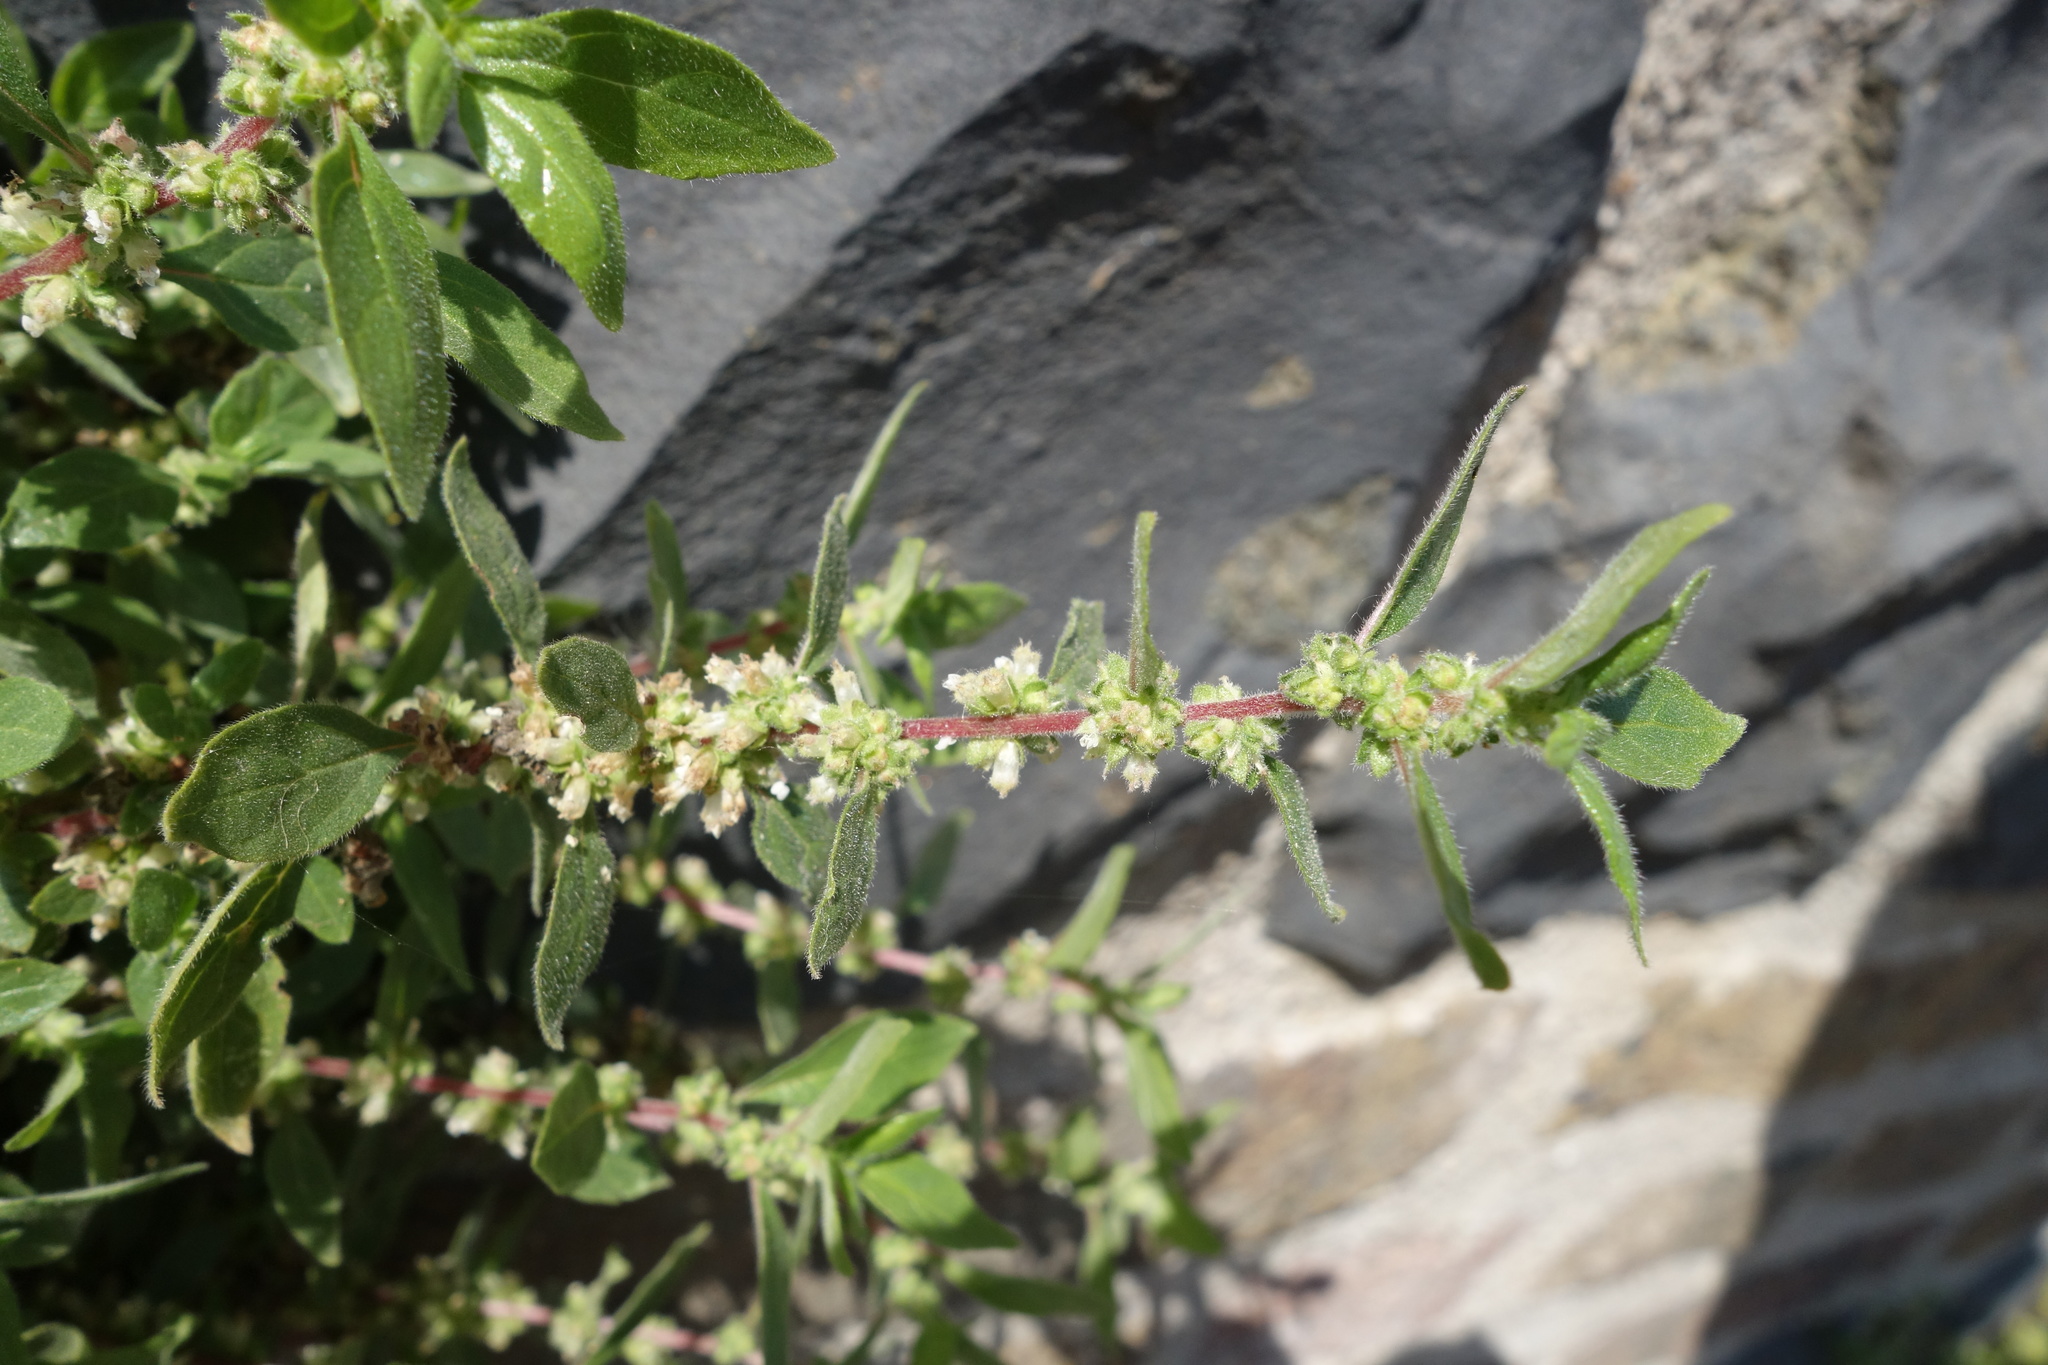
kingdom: Plantae
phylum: Tracheophyta
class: Magnoliopsida
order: Rosales
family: Urticaceae
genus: Parietaria
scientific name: Parietaria judaica
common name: Pellitory-of-the-wall
